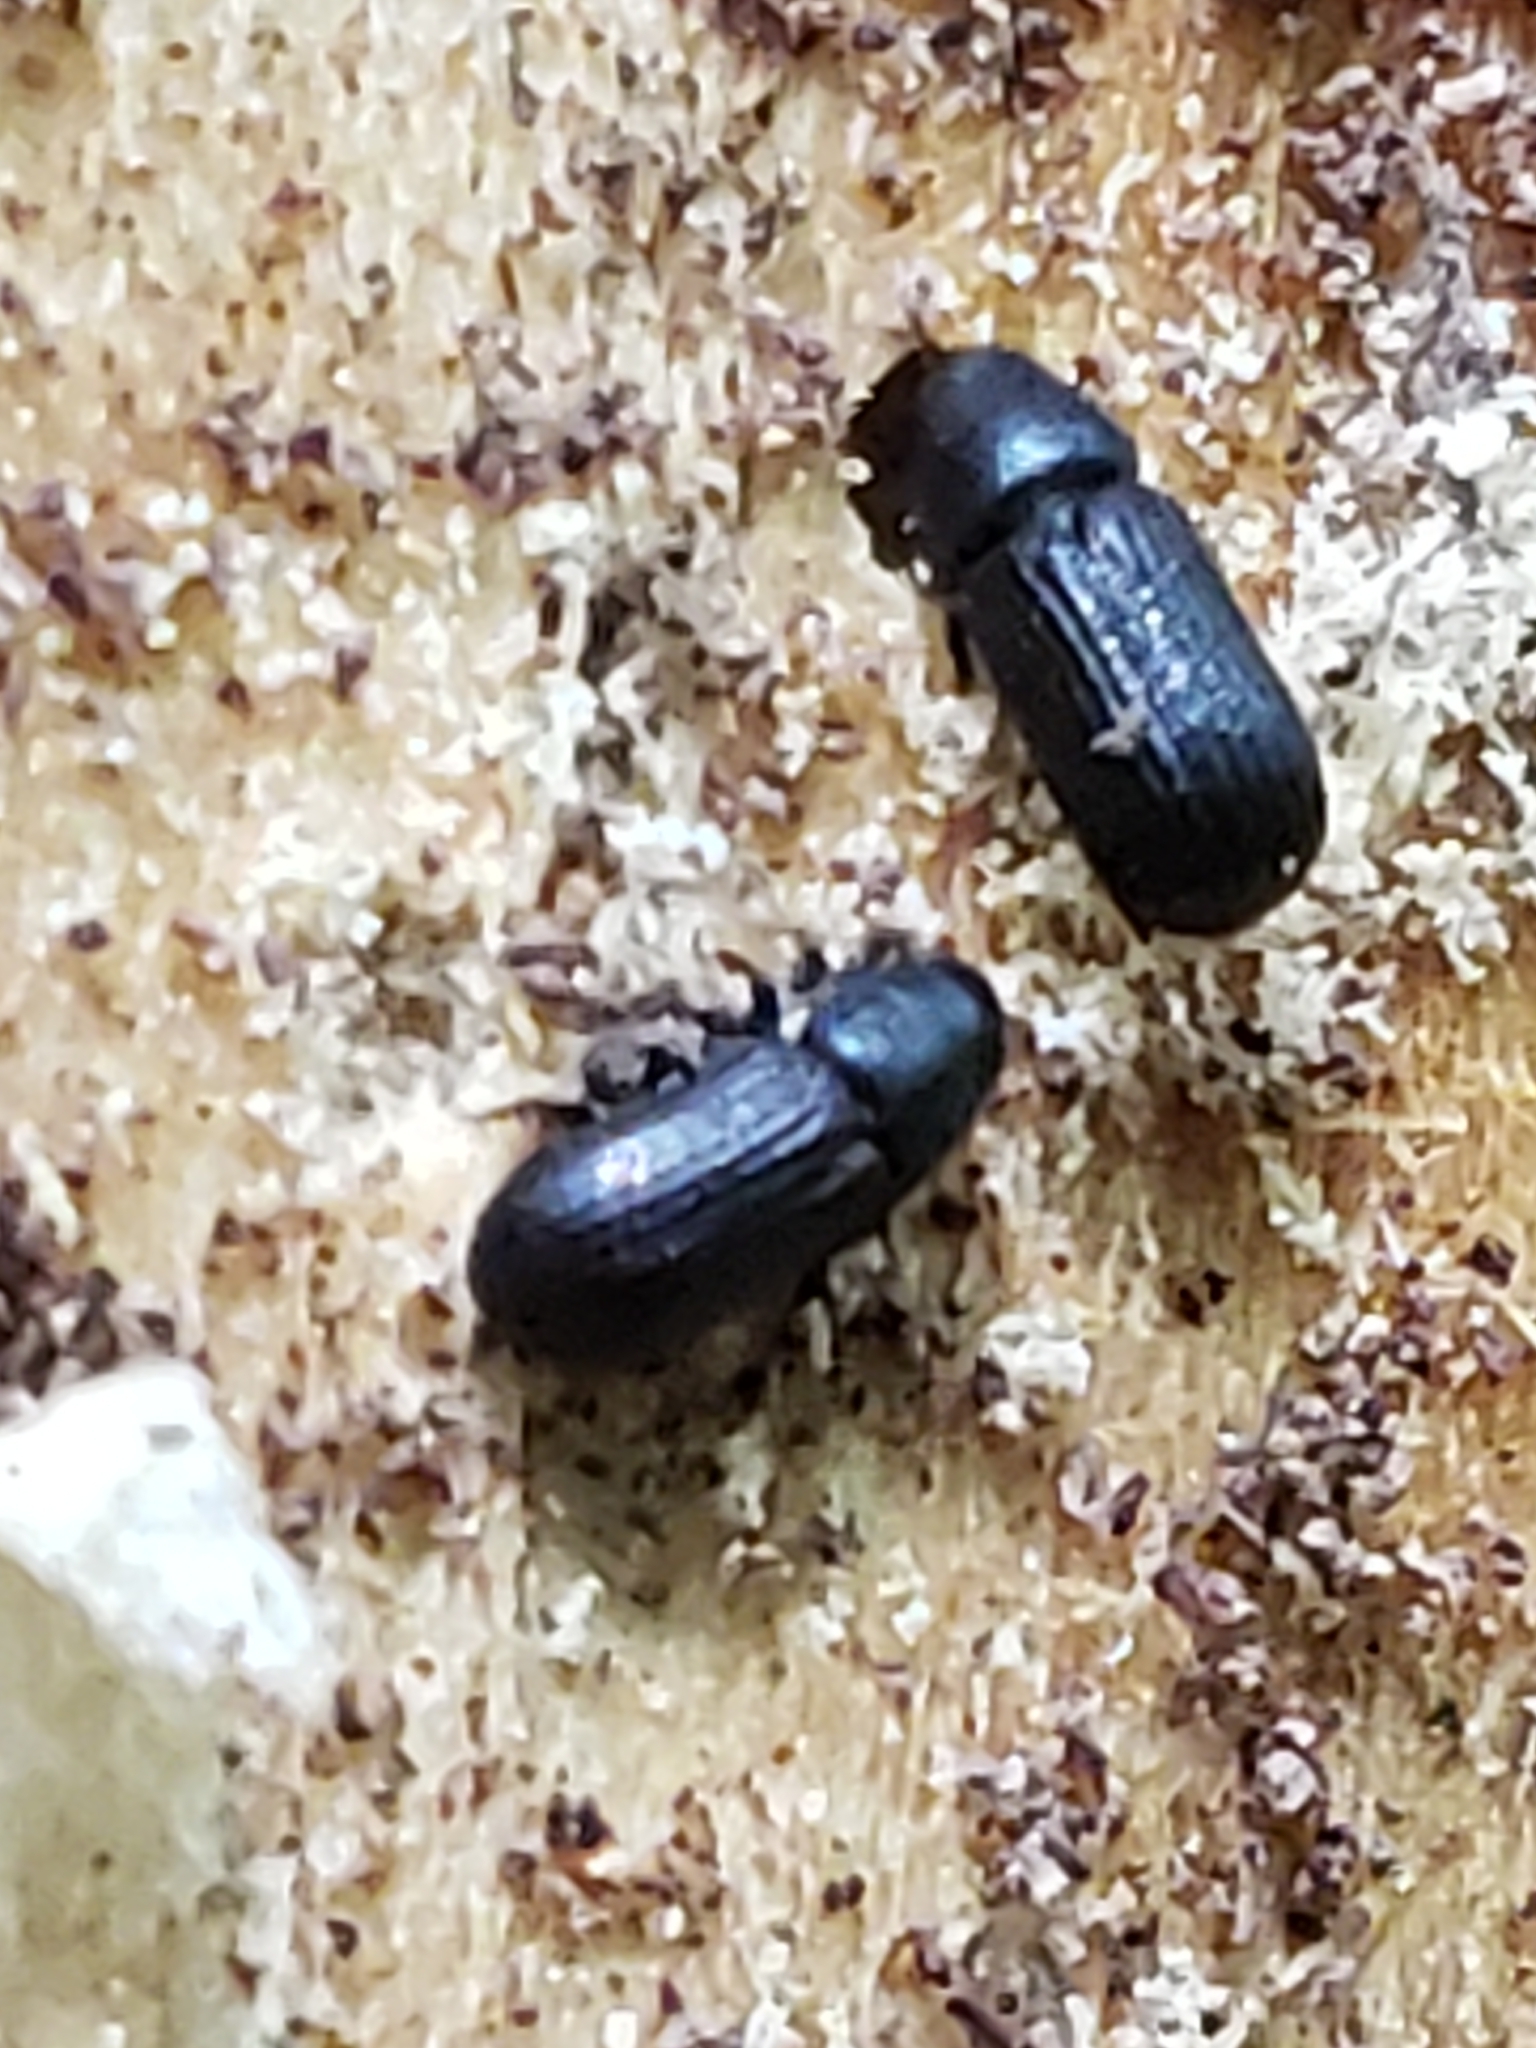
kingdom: Animalia
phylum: Arthropoda
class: Insecta
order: Coleoptera
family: Curculionidae
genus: Stenoscelis
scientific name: Stenoscelis brevis
